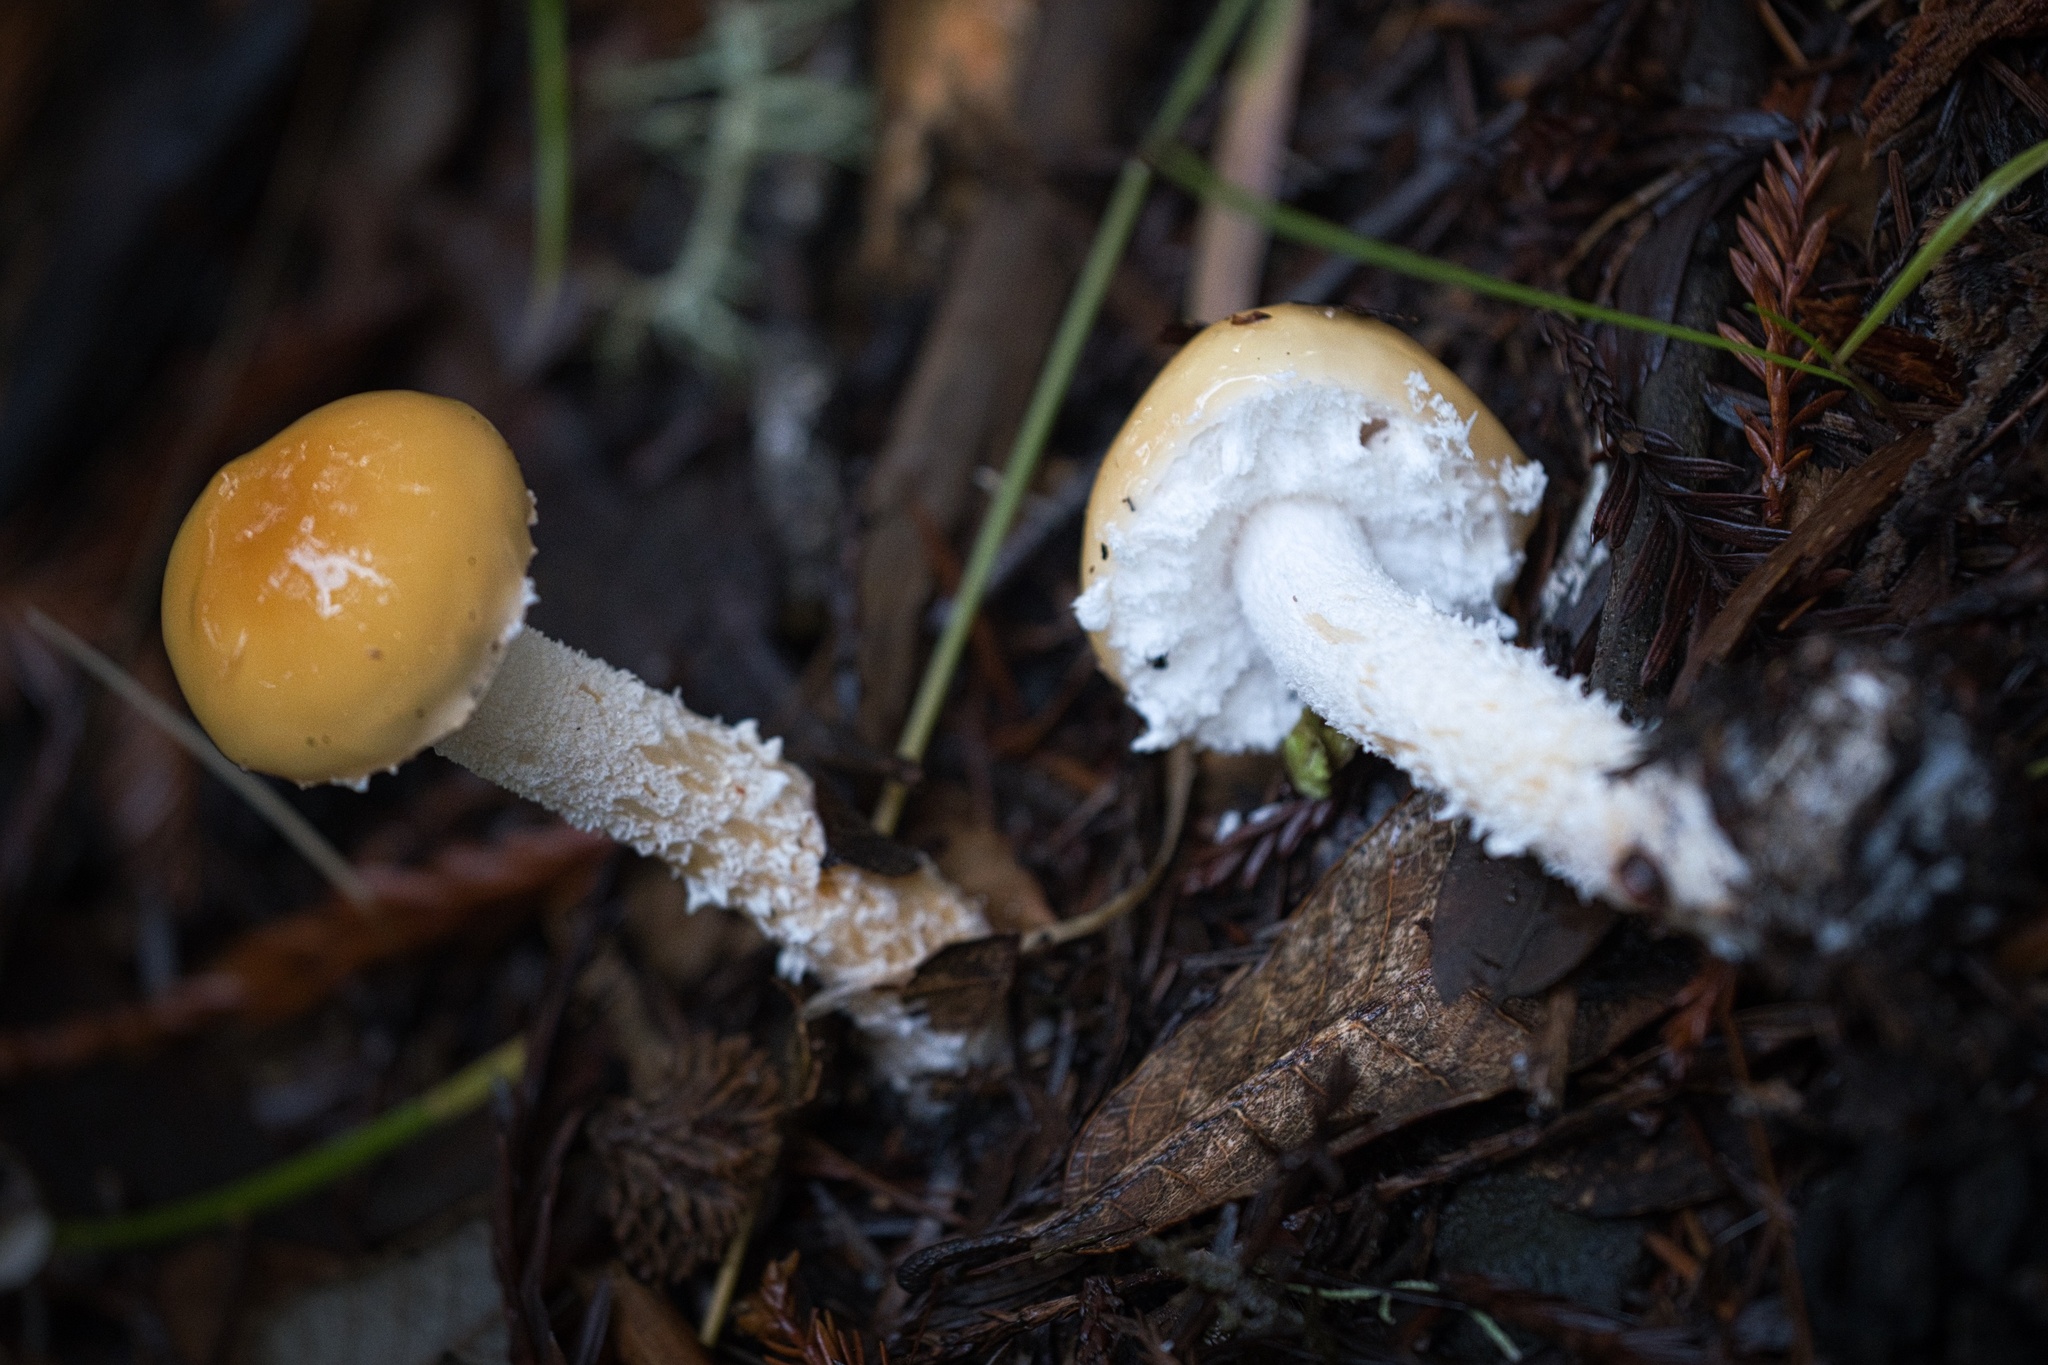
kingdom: Fungi
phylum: Basidiomycota
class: Agaricomycetes
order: Agaricales
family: Strophariaceae
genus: Stropharia
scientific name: Stropharia ambigua
